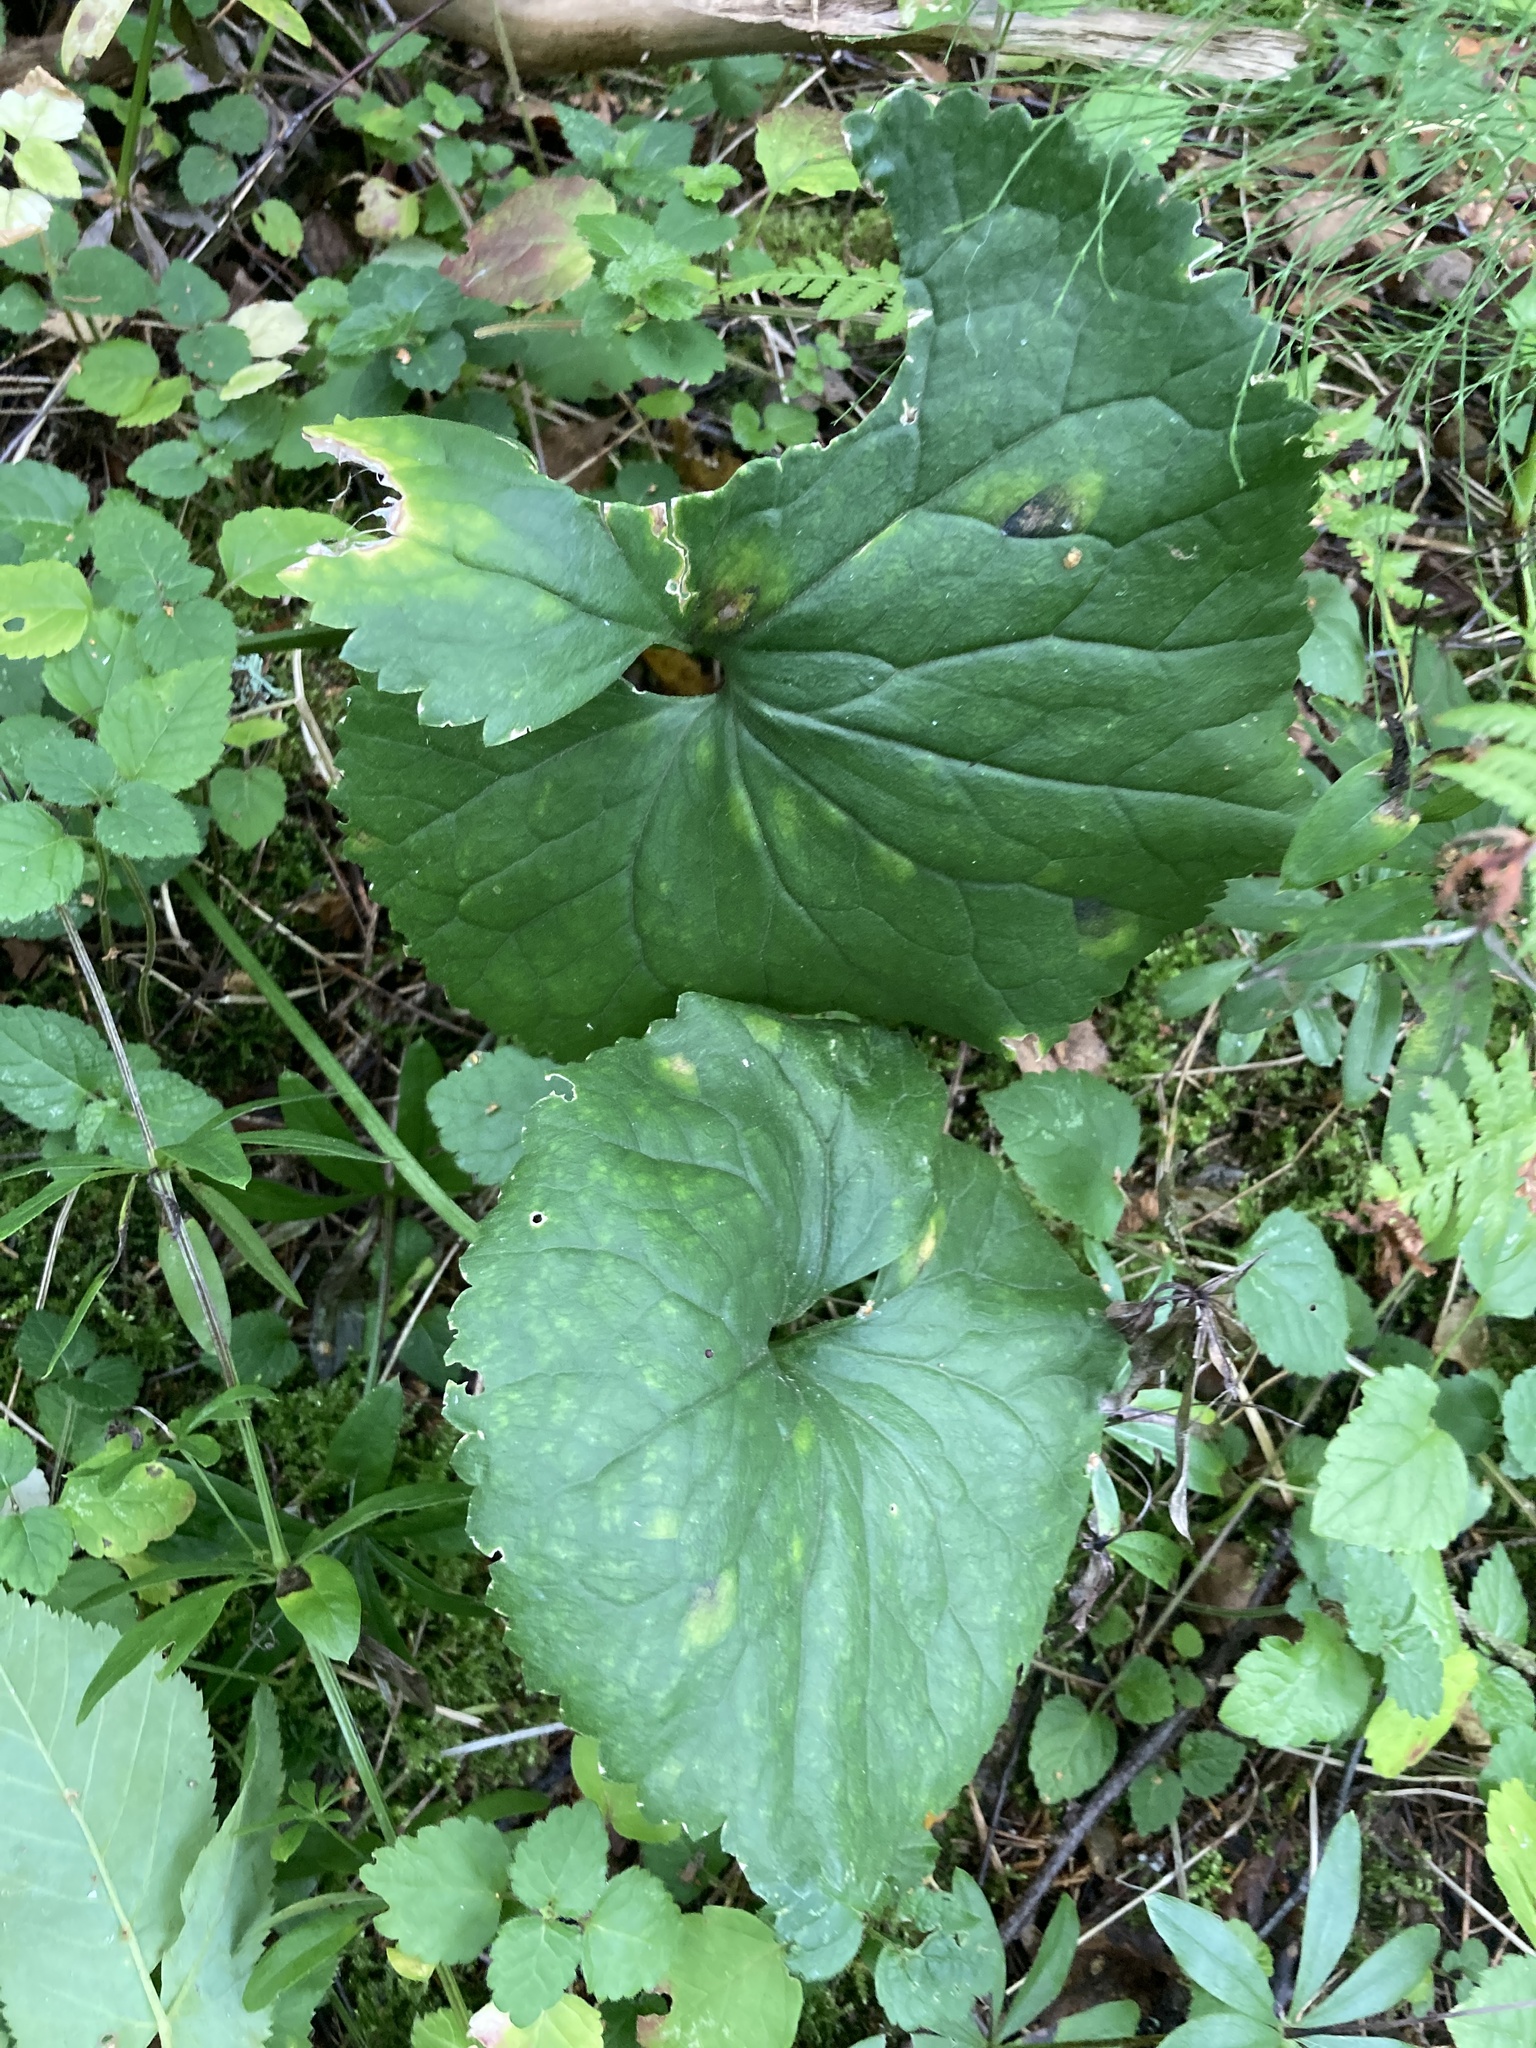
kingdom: Plantae
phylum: Tracheophyta
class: Magnoliopsida
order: Ranunculales
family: Ranunculaceae
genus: Ranunculus
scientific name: Ranunculus cassubicus
